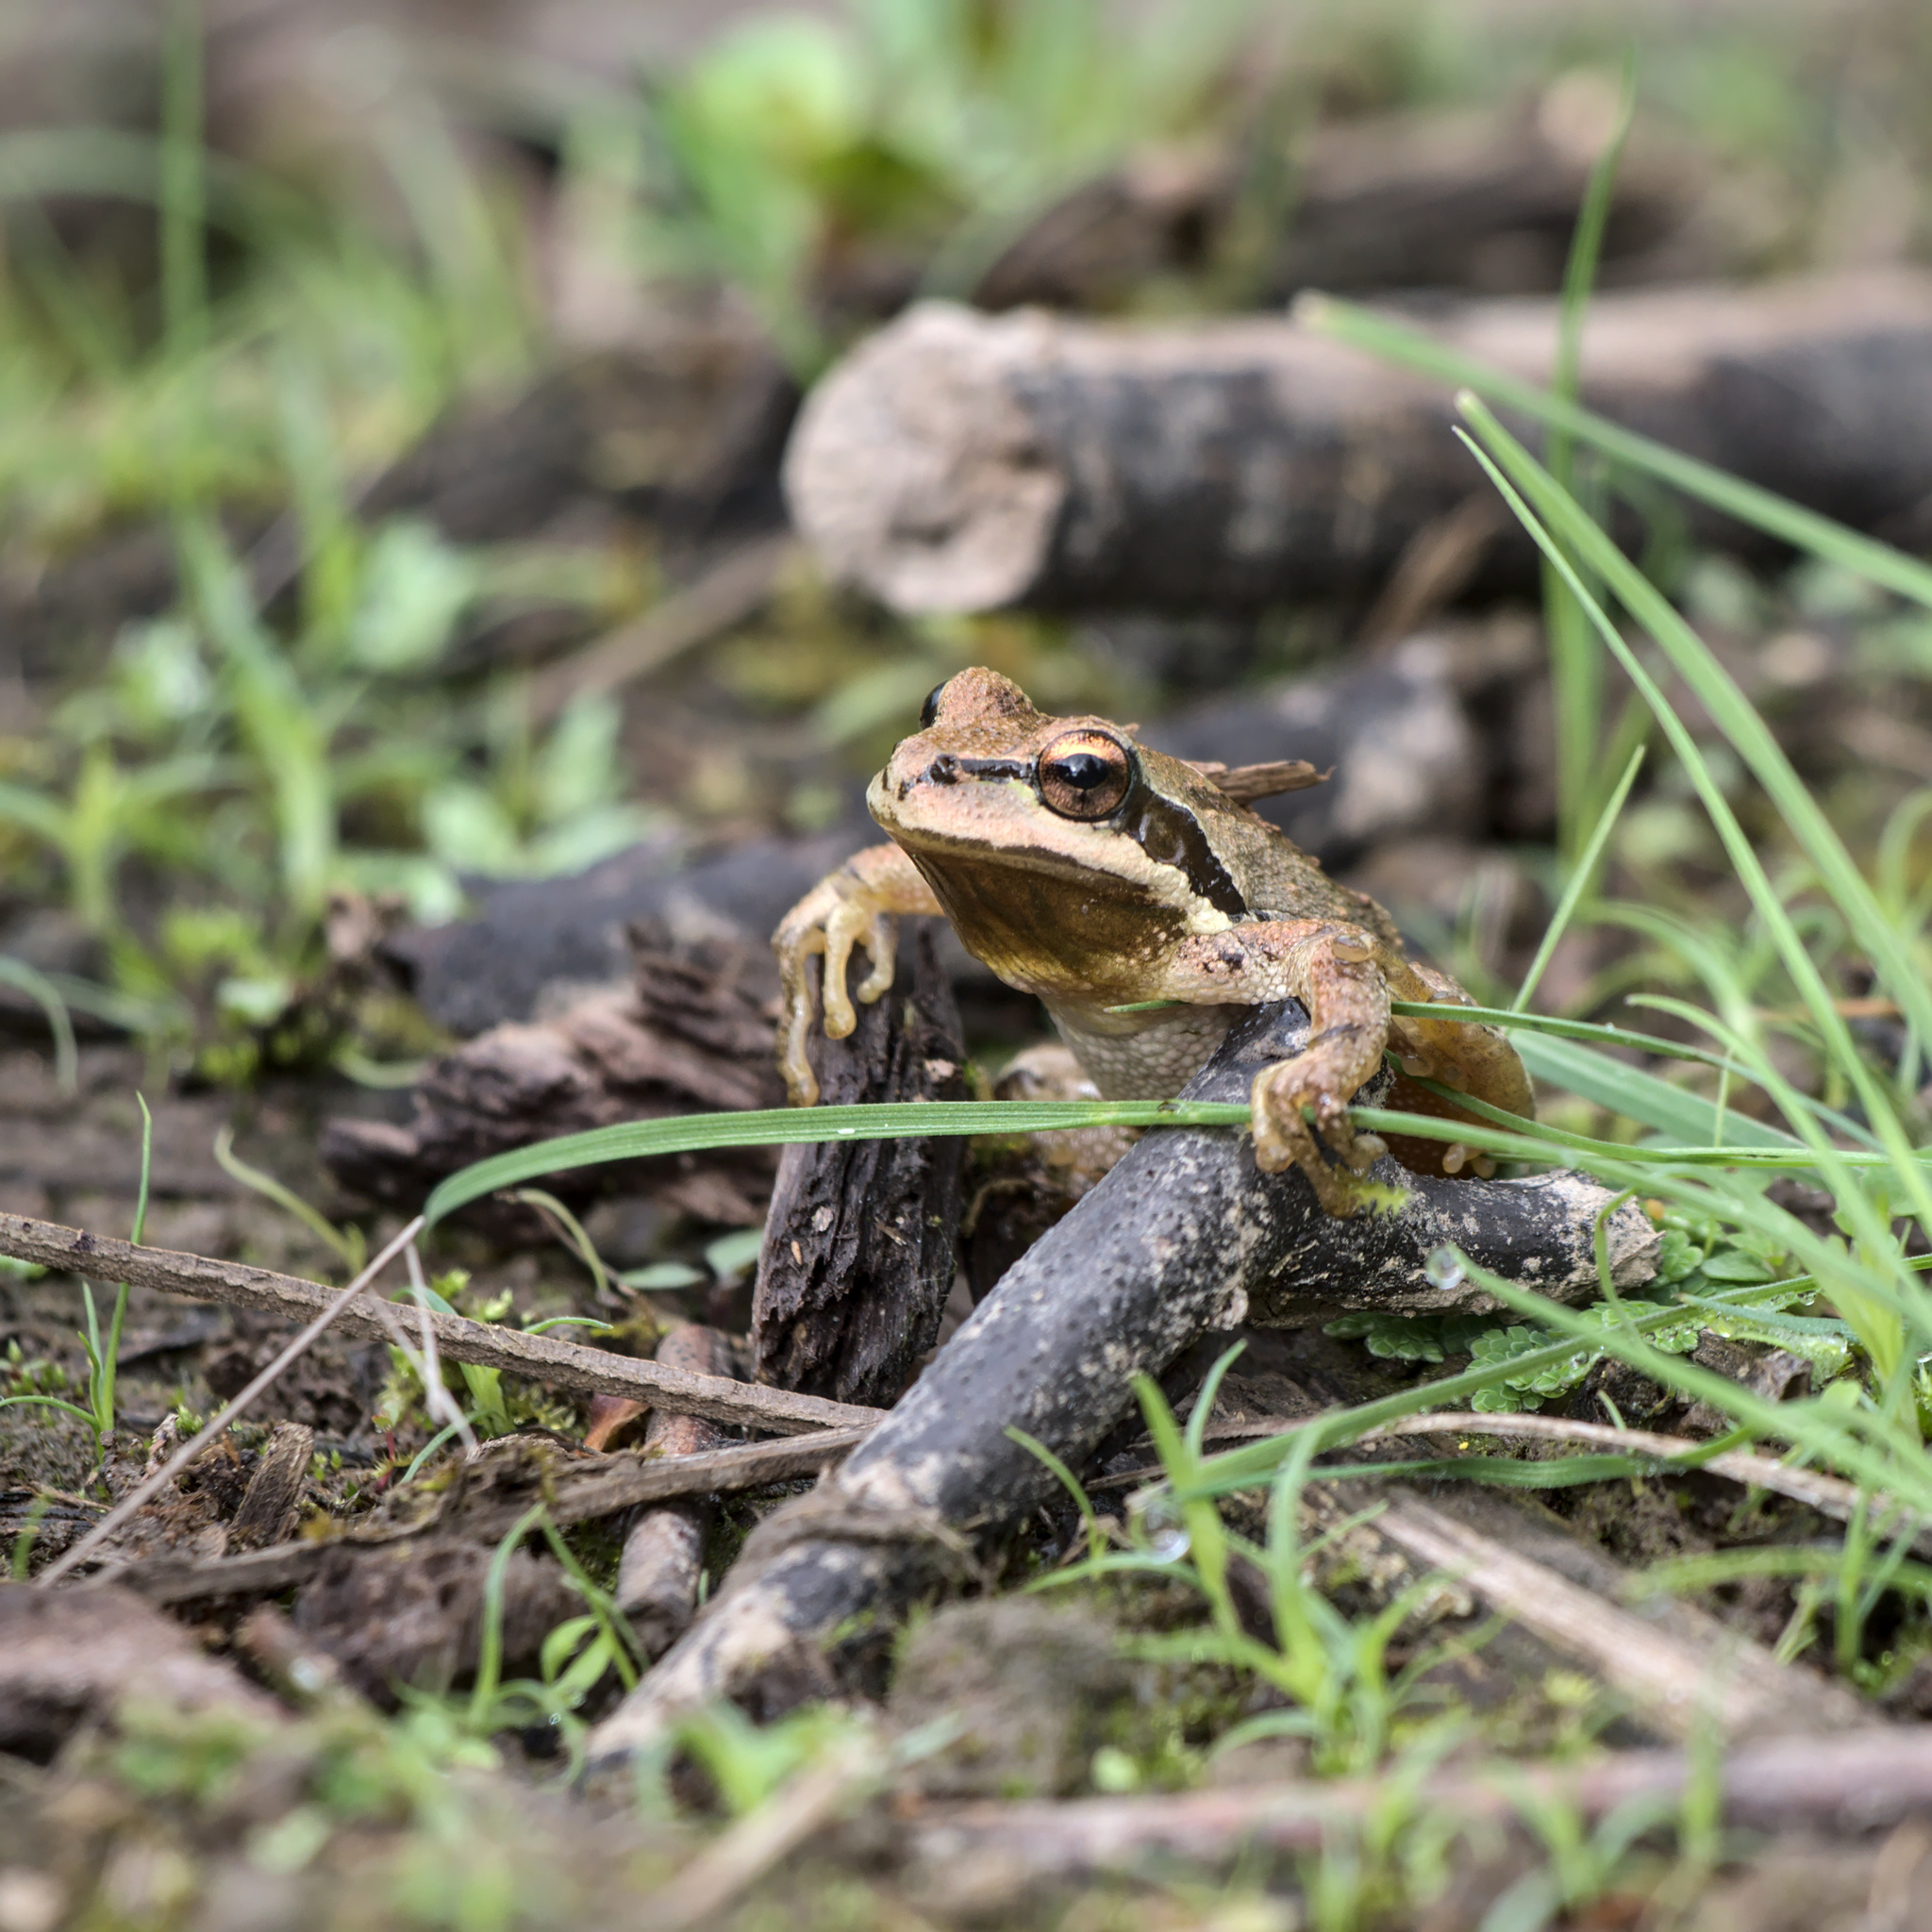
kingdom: Animalia
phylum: Chordata
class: Amphibia
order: Anura
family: Hylidae
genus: Pseudacris
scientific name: Pseudacris regilla
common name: Pacific chorus frog
